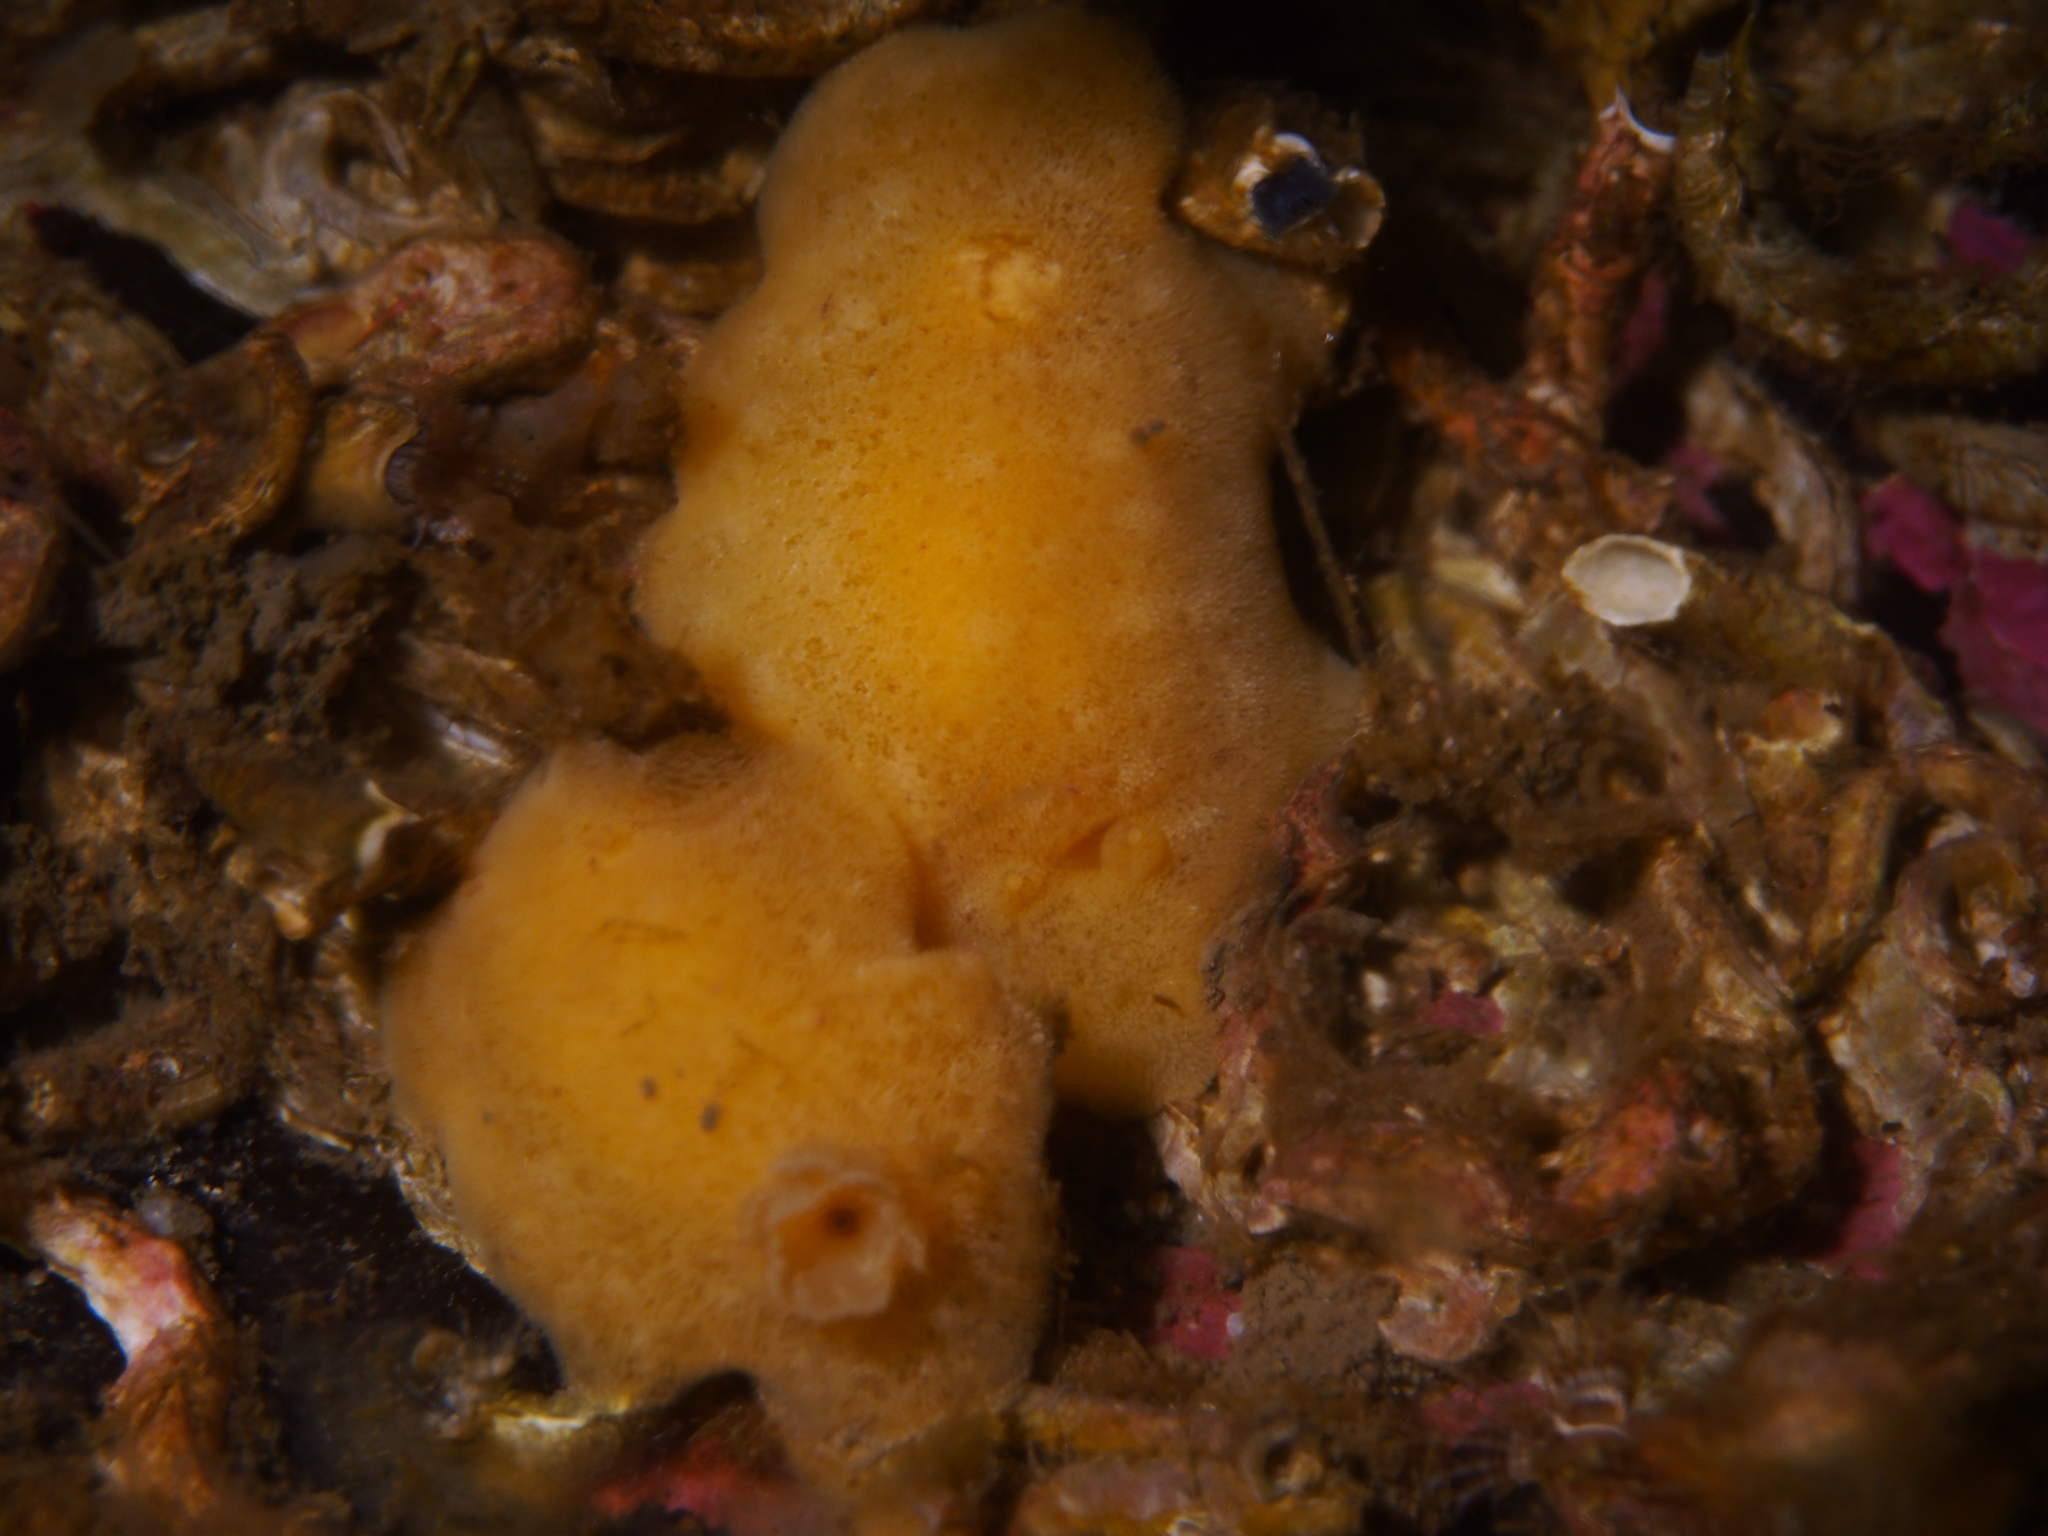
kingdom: Animalia
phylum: Mollusca
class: Gastropoda
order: Nudibranchia
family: Discodorididae
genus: Jorunna
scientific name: Jorunna tomentosa
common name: Grey sea slug
